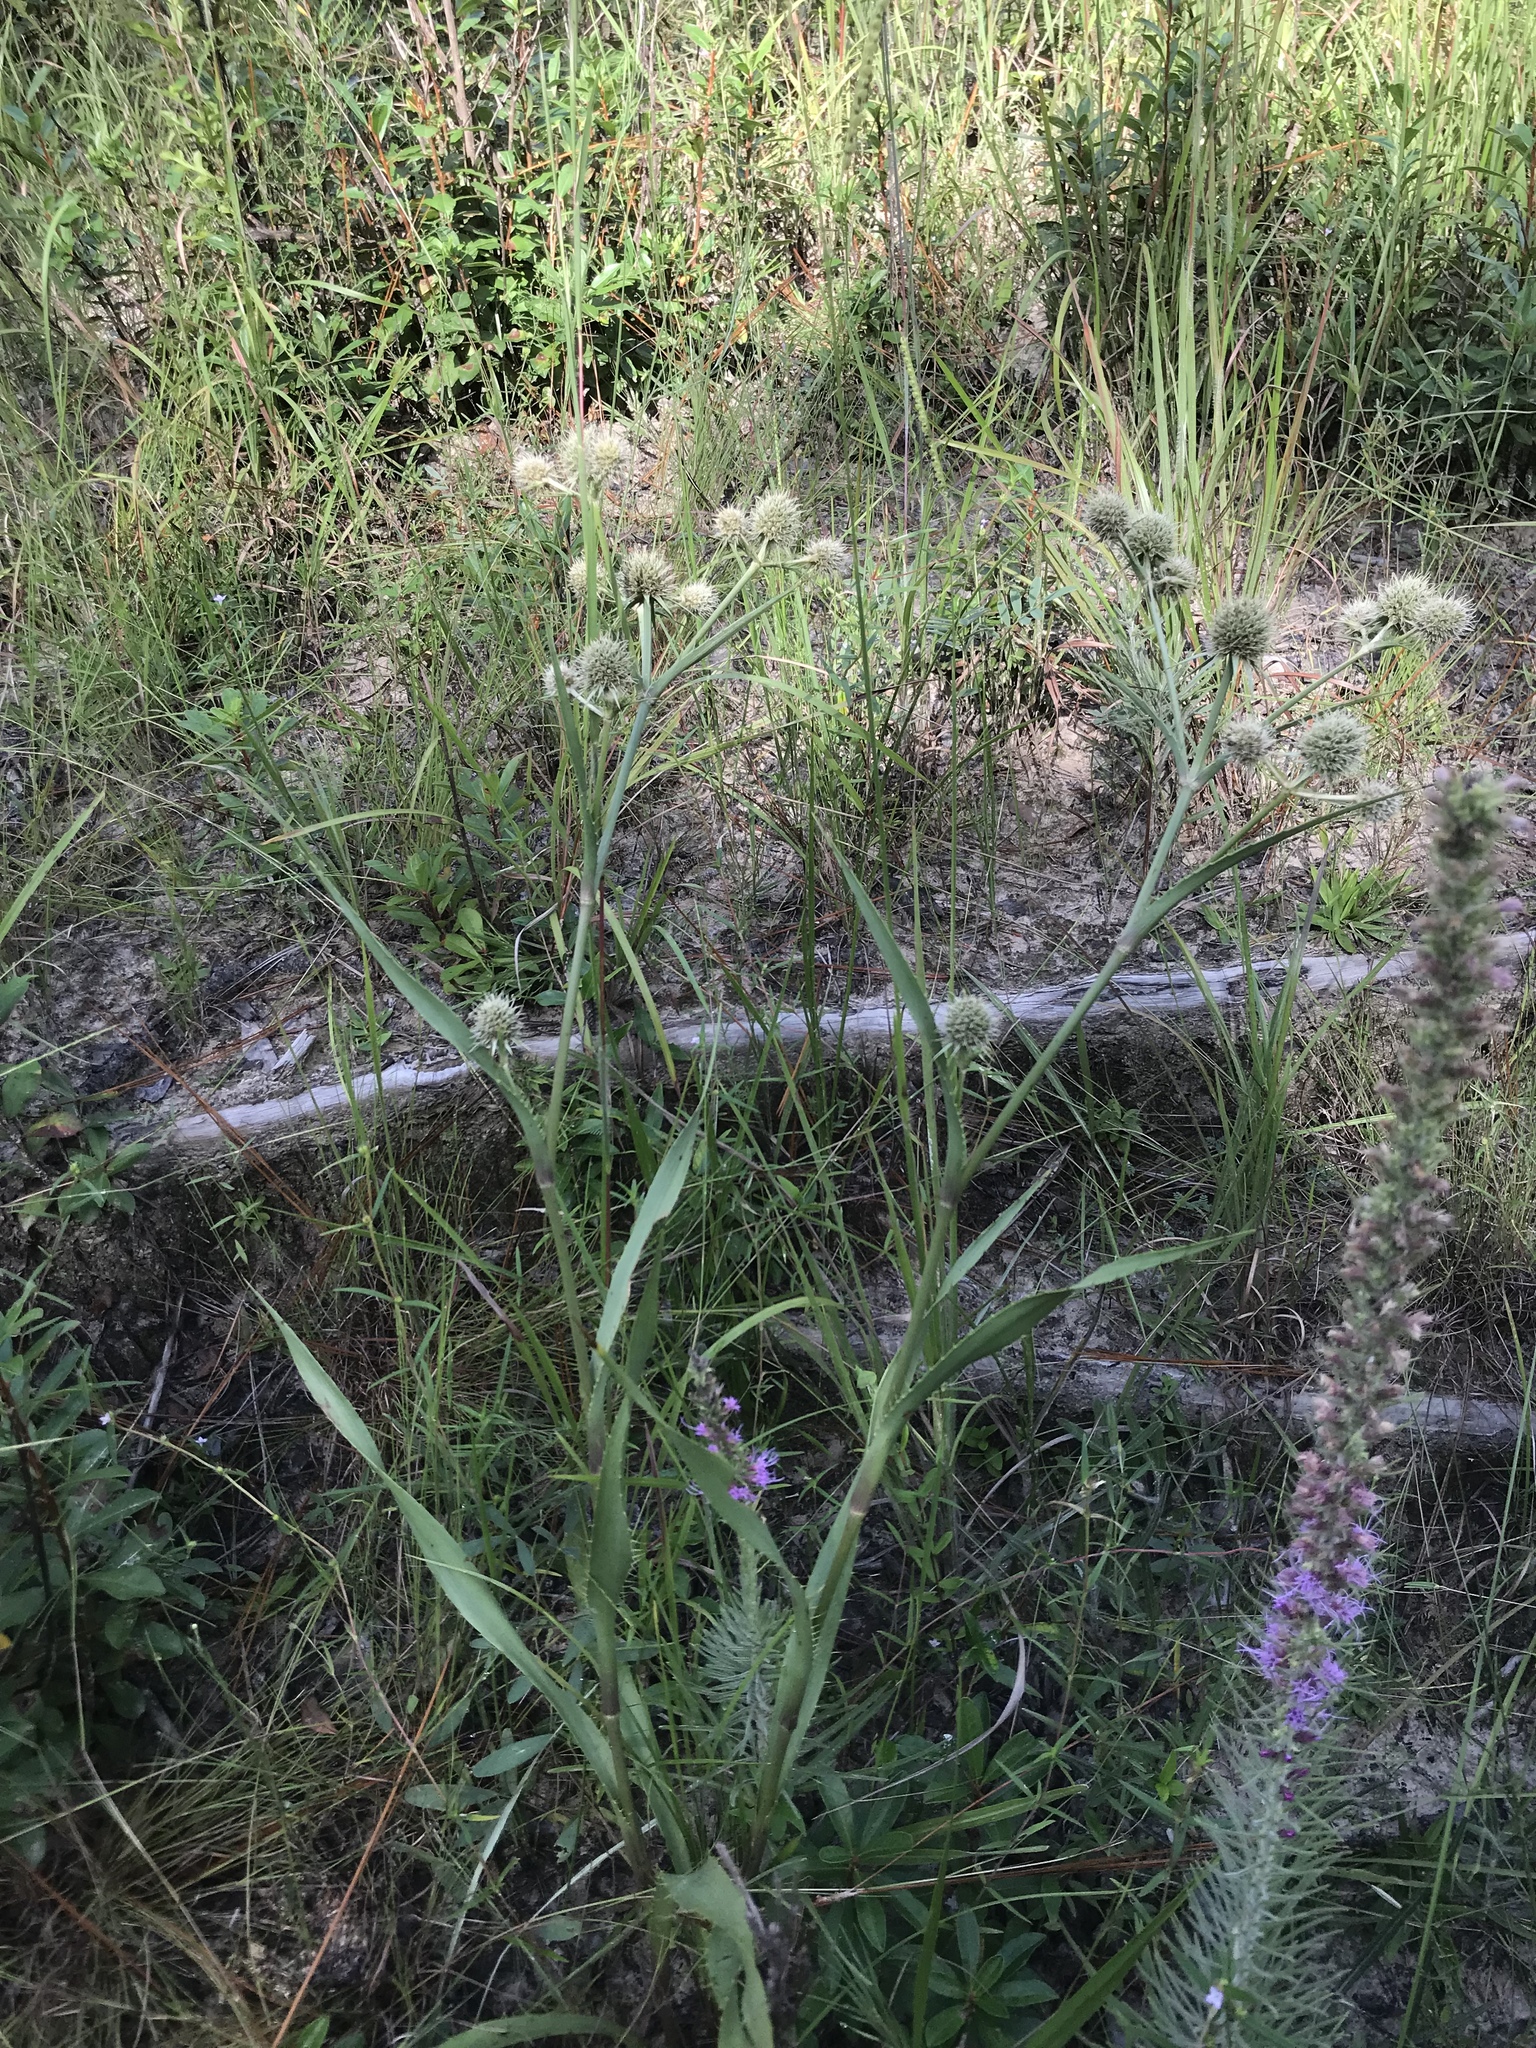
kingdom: Plantae
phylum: Tracheophyta
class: Magnoliopsida
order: Apiales
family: Apiaceae
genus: Eryngium
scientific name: Eryngium yuccifolium
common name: Button eryngo
